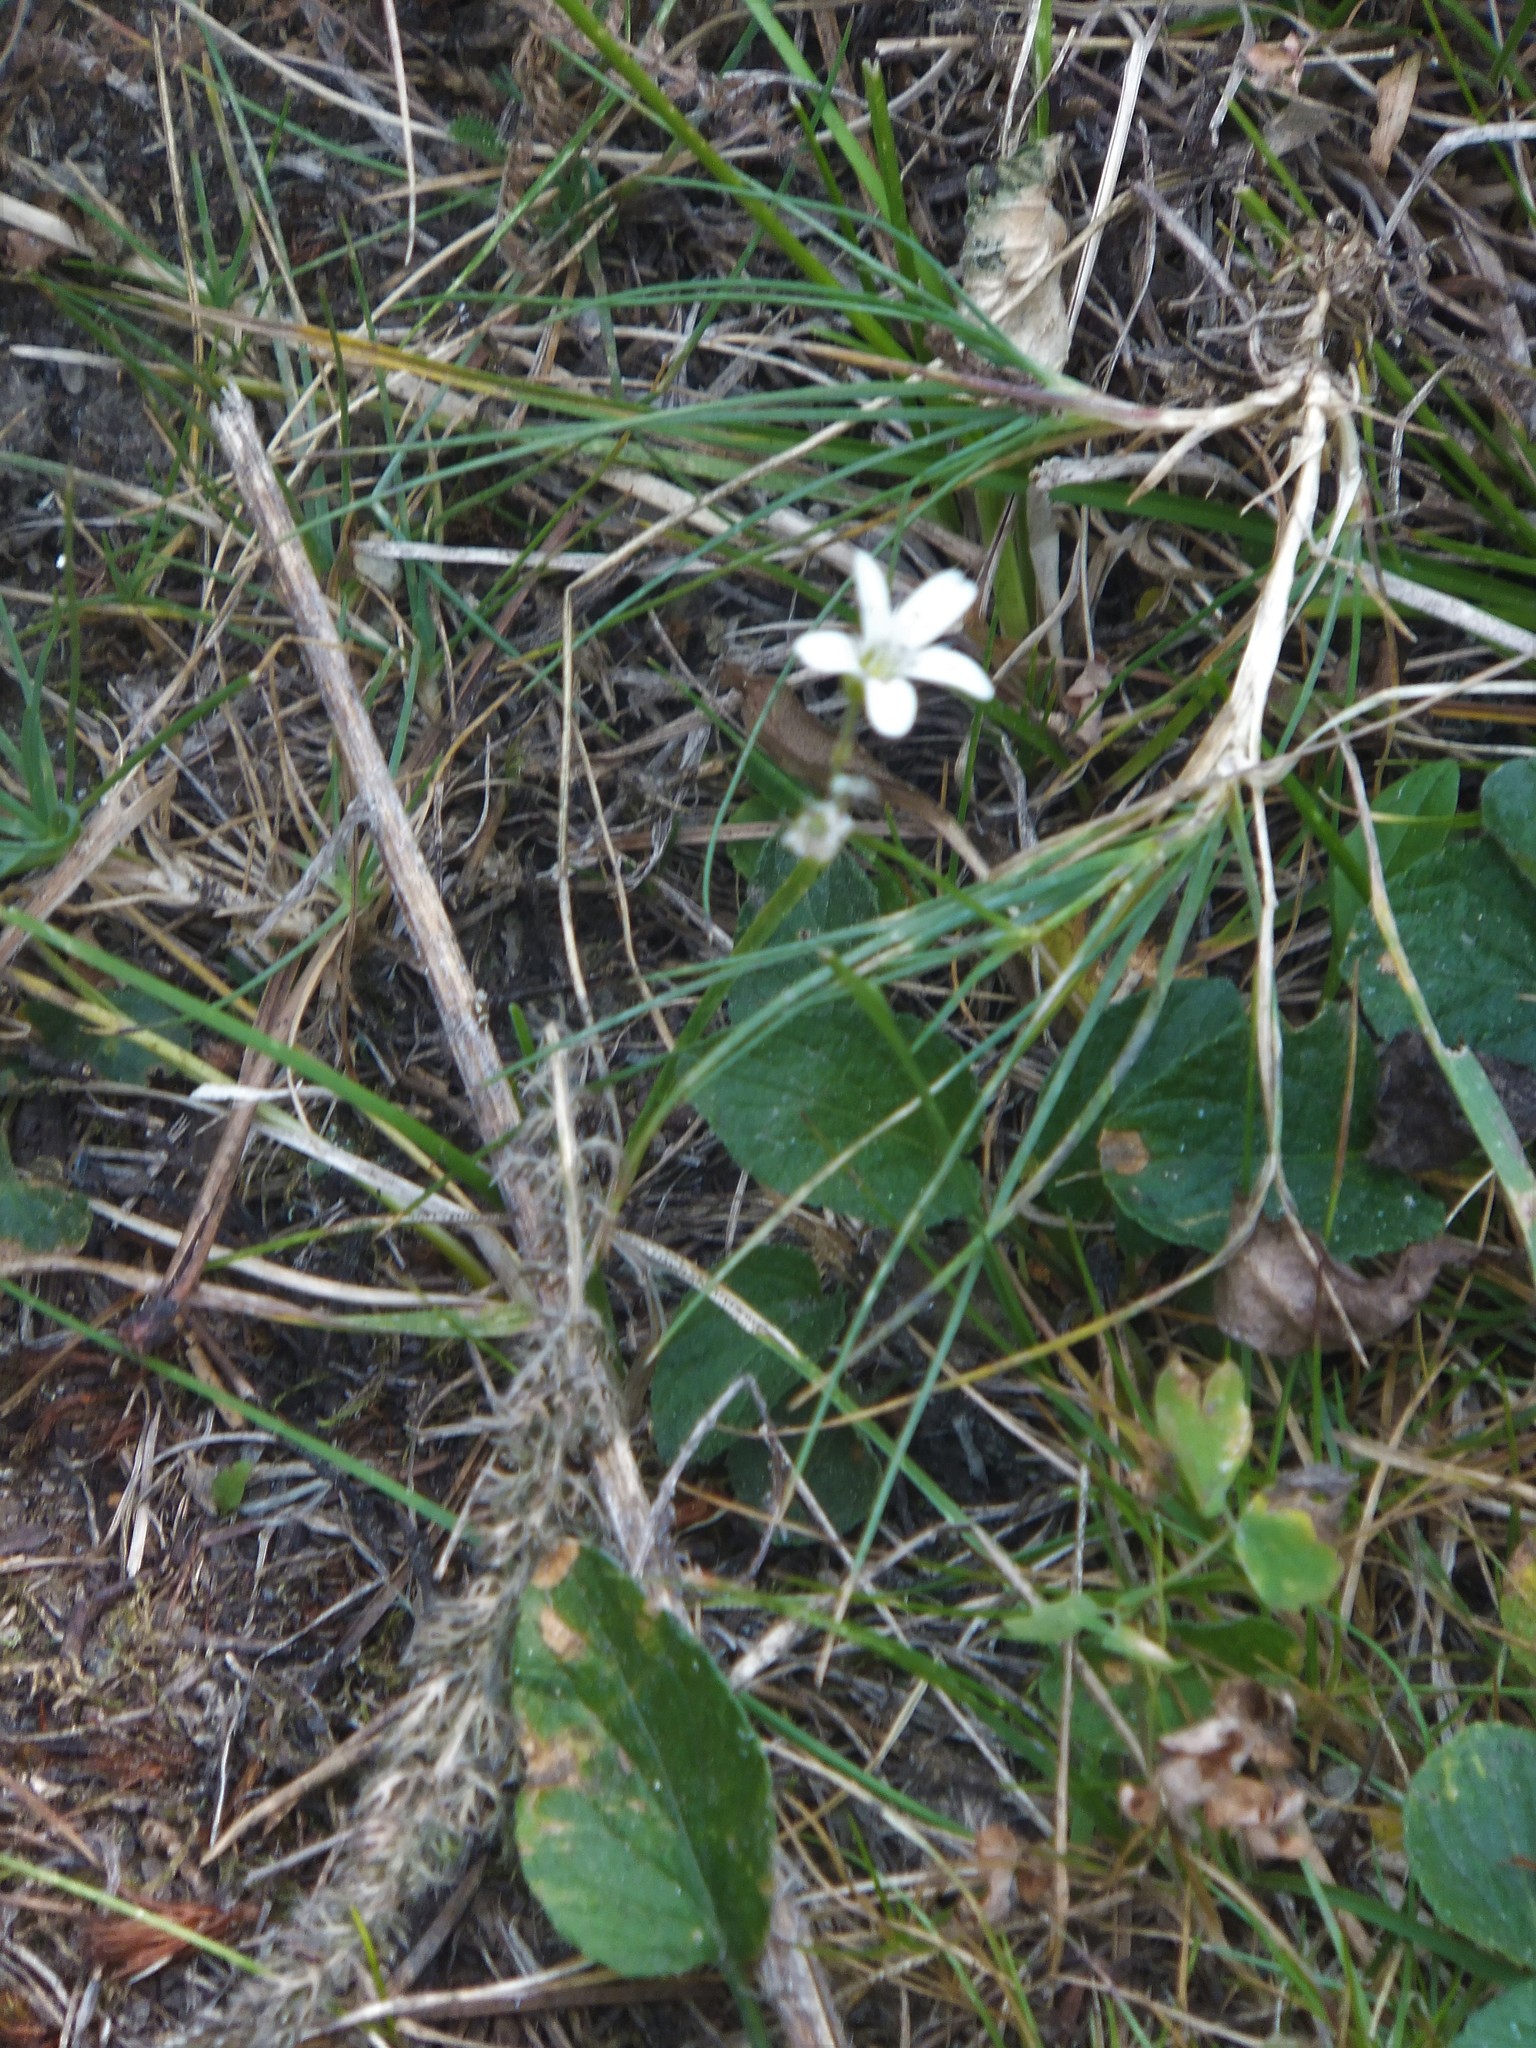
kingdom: Plantae
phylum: Tracheophyta
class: Magnoliopsida
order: Caryophyllales
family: Caryophyllaceae
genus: Eremogone
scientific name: Eremogone capillaris
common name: Slender mountain sandwort
